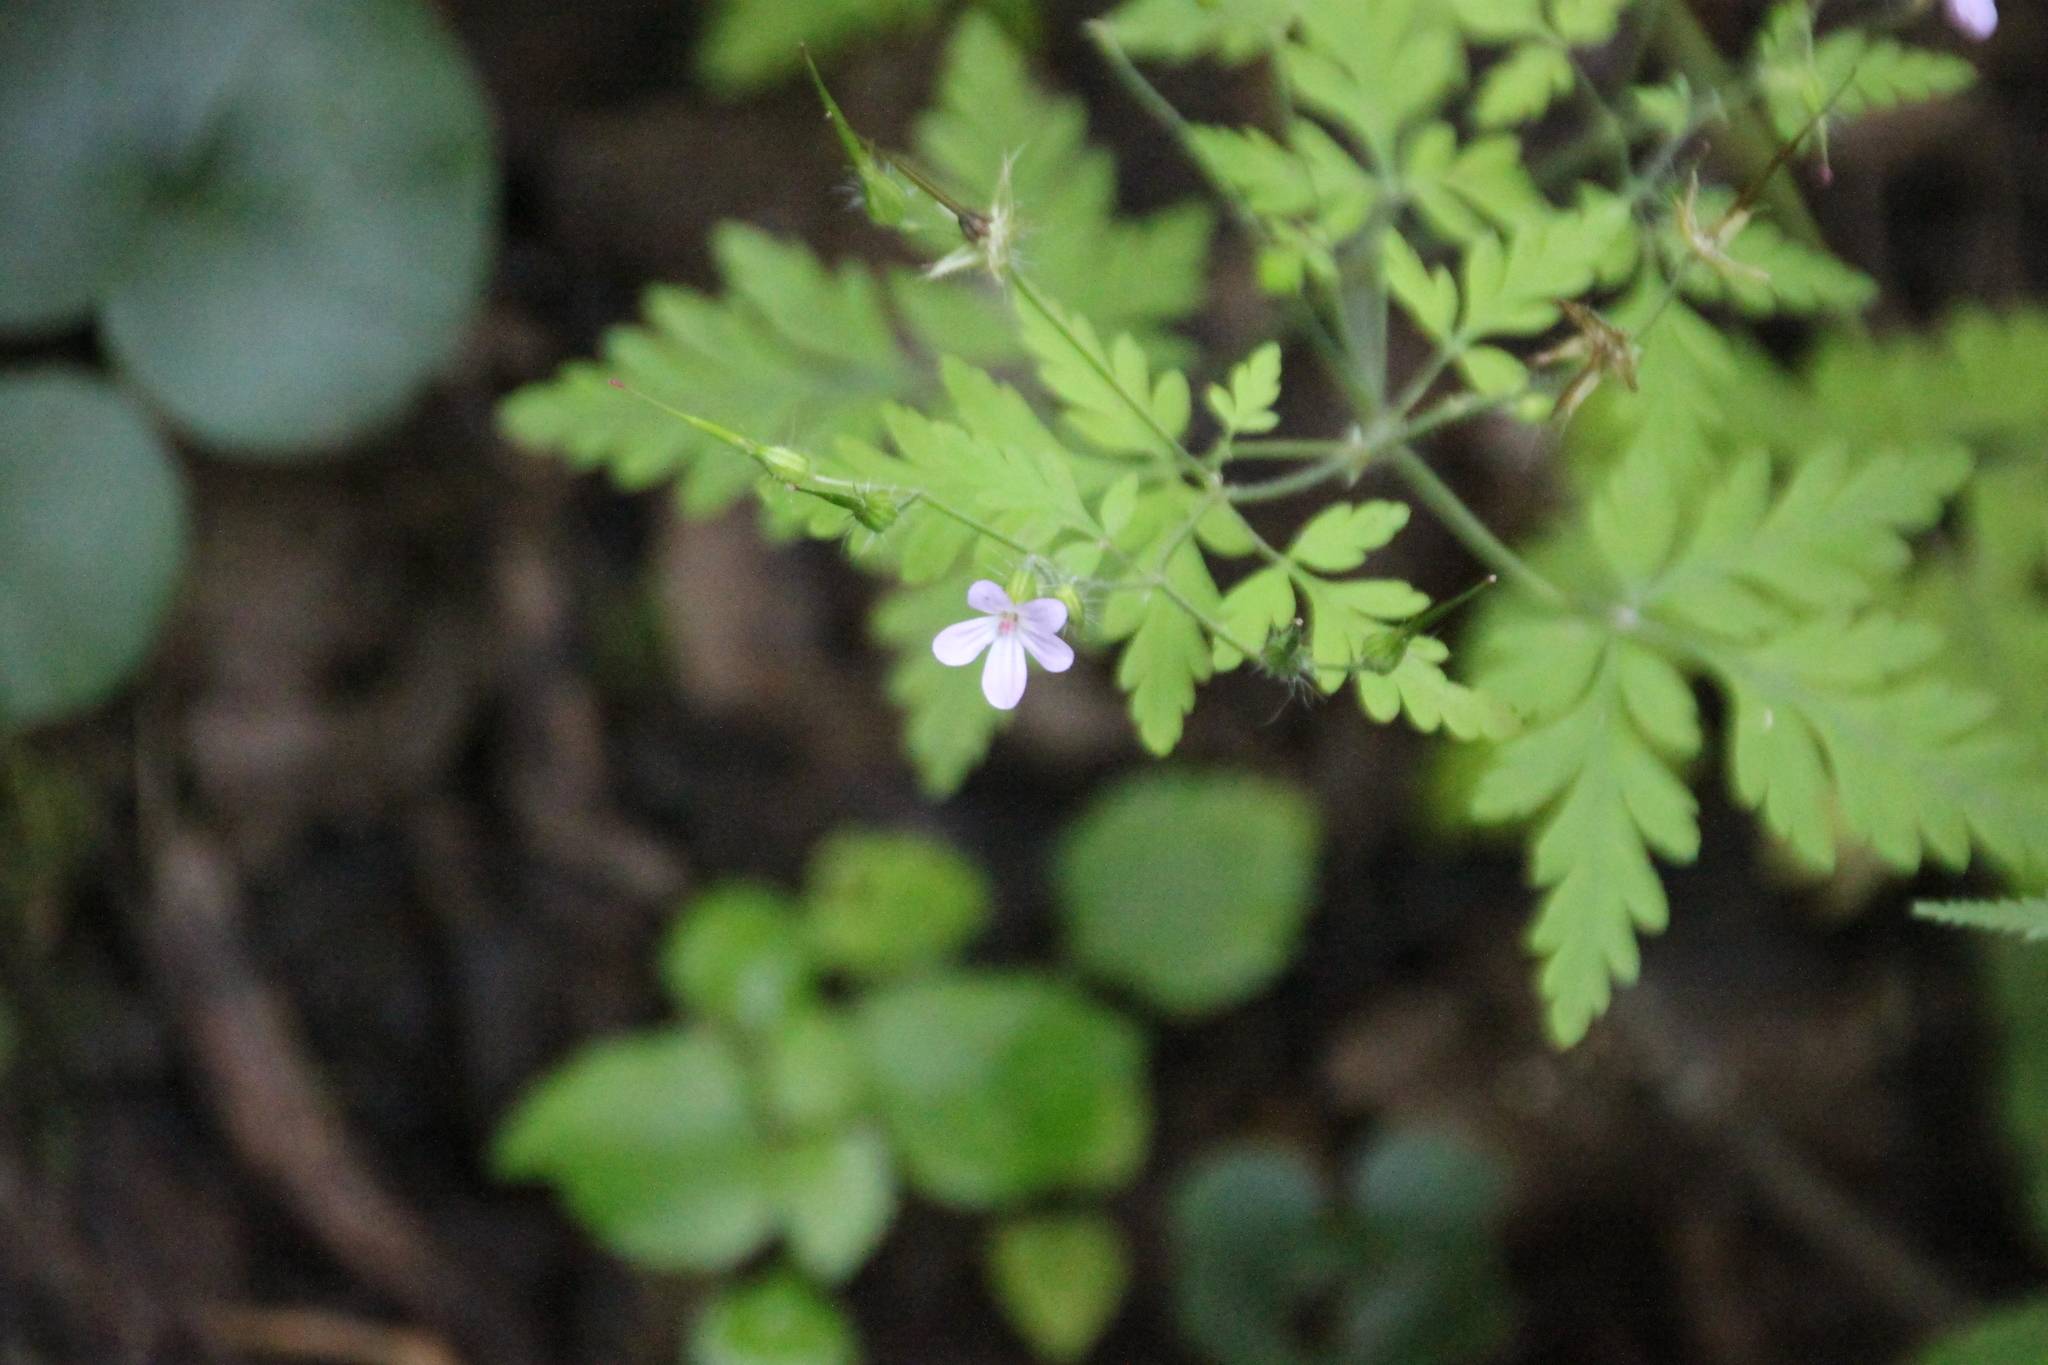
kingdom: Plantae
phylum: Tracheophyta
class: Magnoliopsida
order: Geraniales
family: Geraniaceae
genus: Geranium
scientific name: Geranium robertianum
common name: Herb-robert
